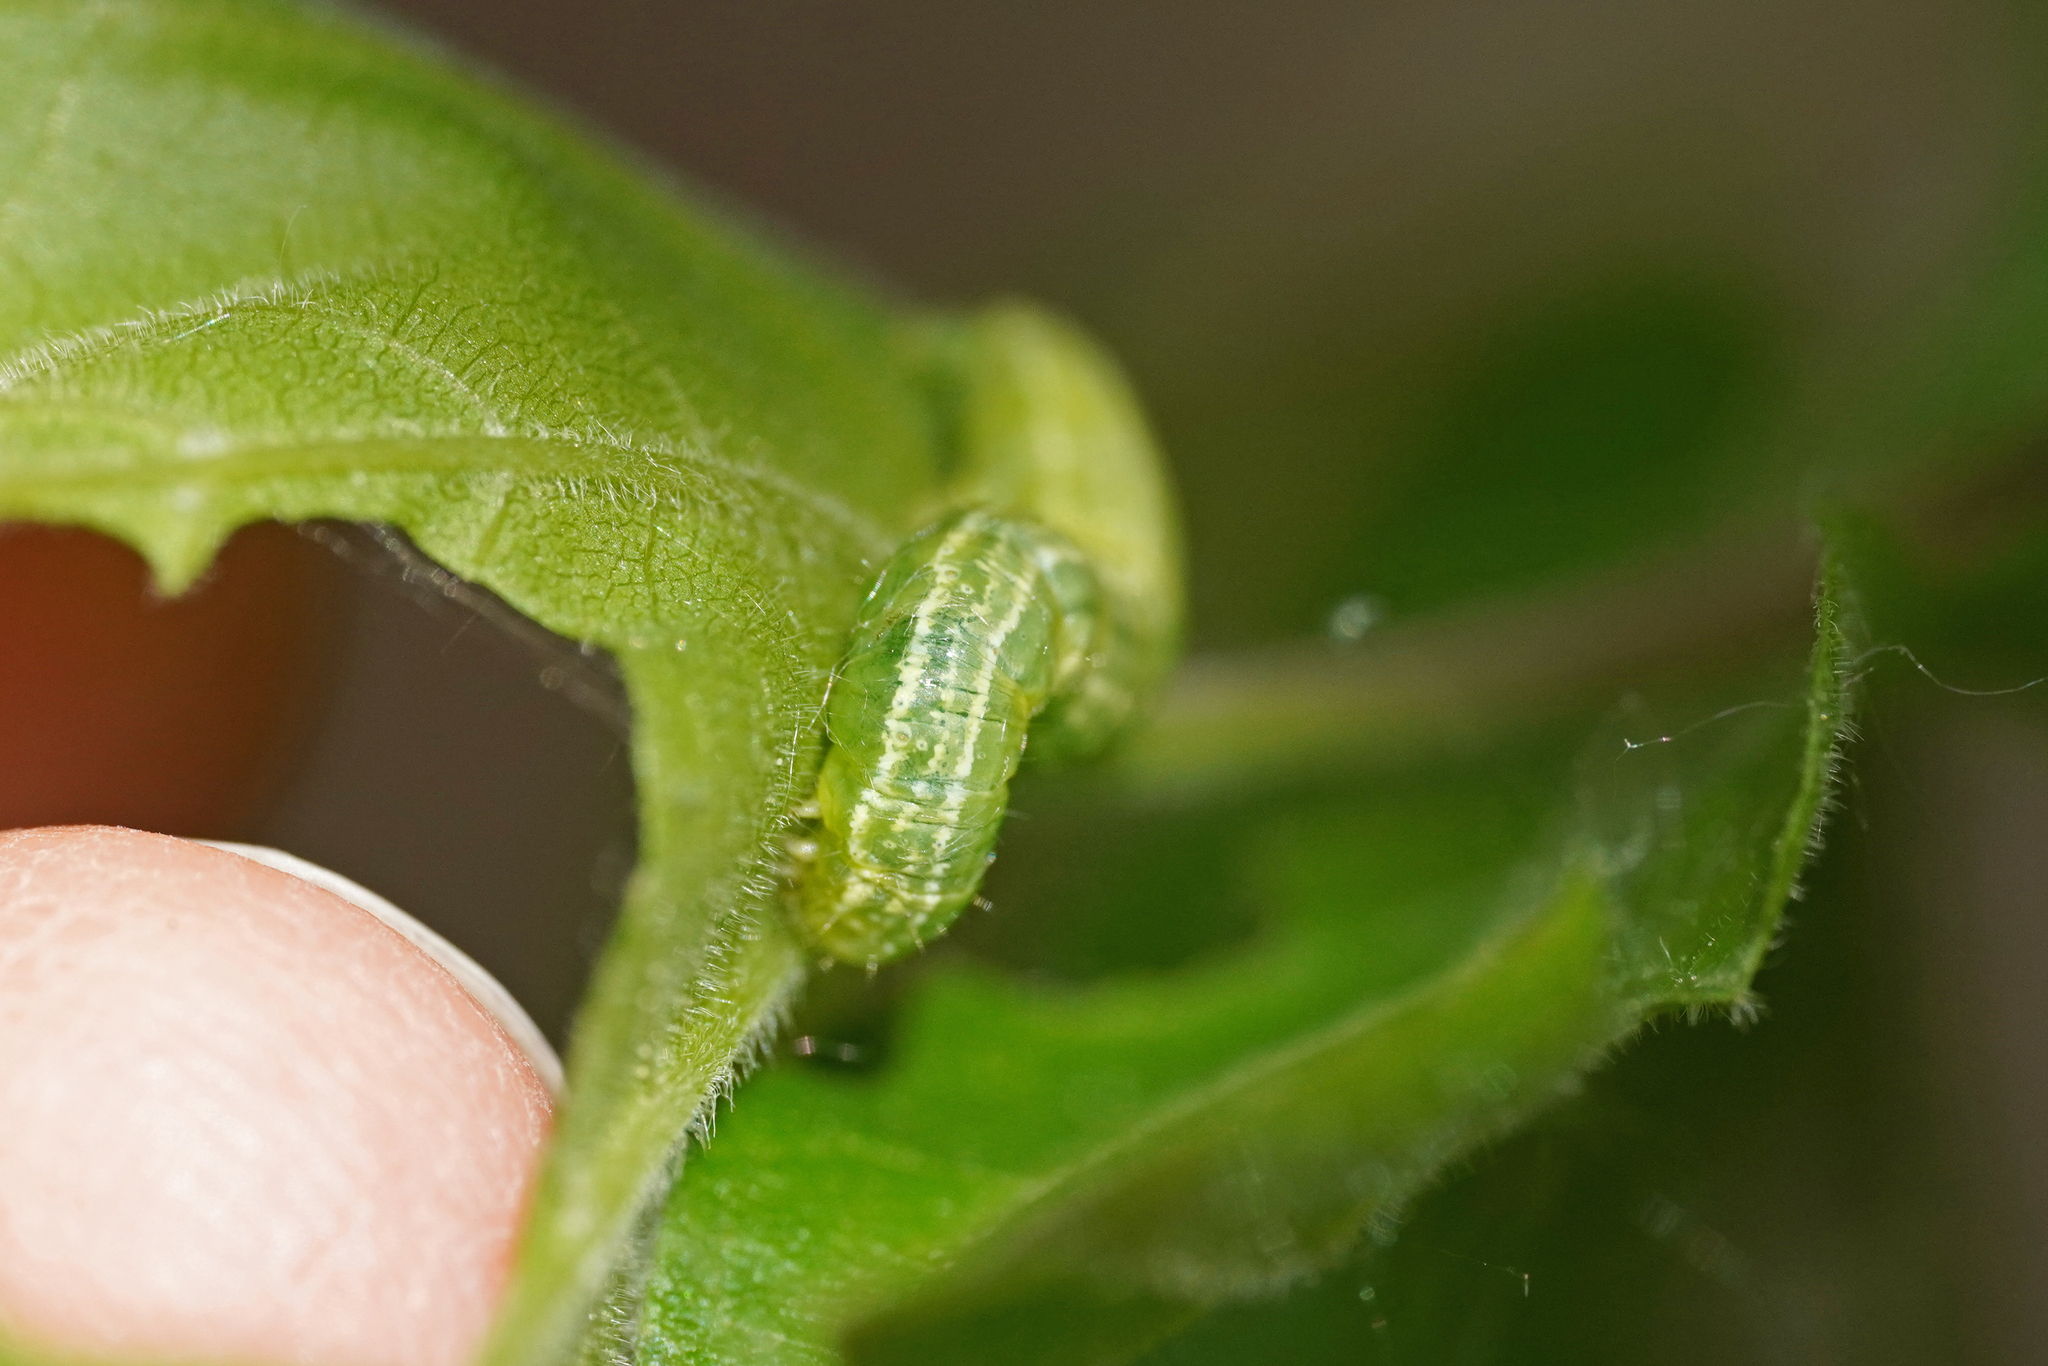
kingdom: Animalia
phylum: Arthropoda
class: Insecta
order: Lepidoptera
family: Geometridae
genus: Operophtera
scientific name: Operophtera brumata
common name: Winter moth
